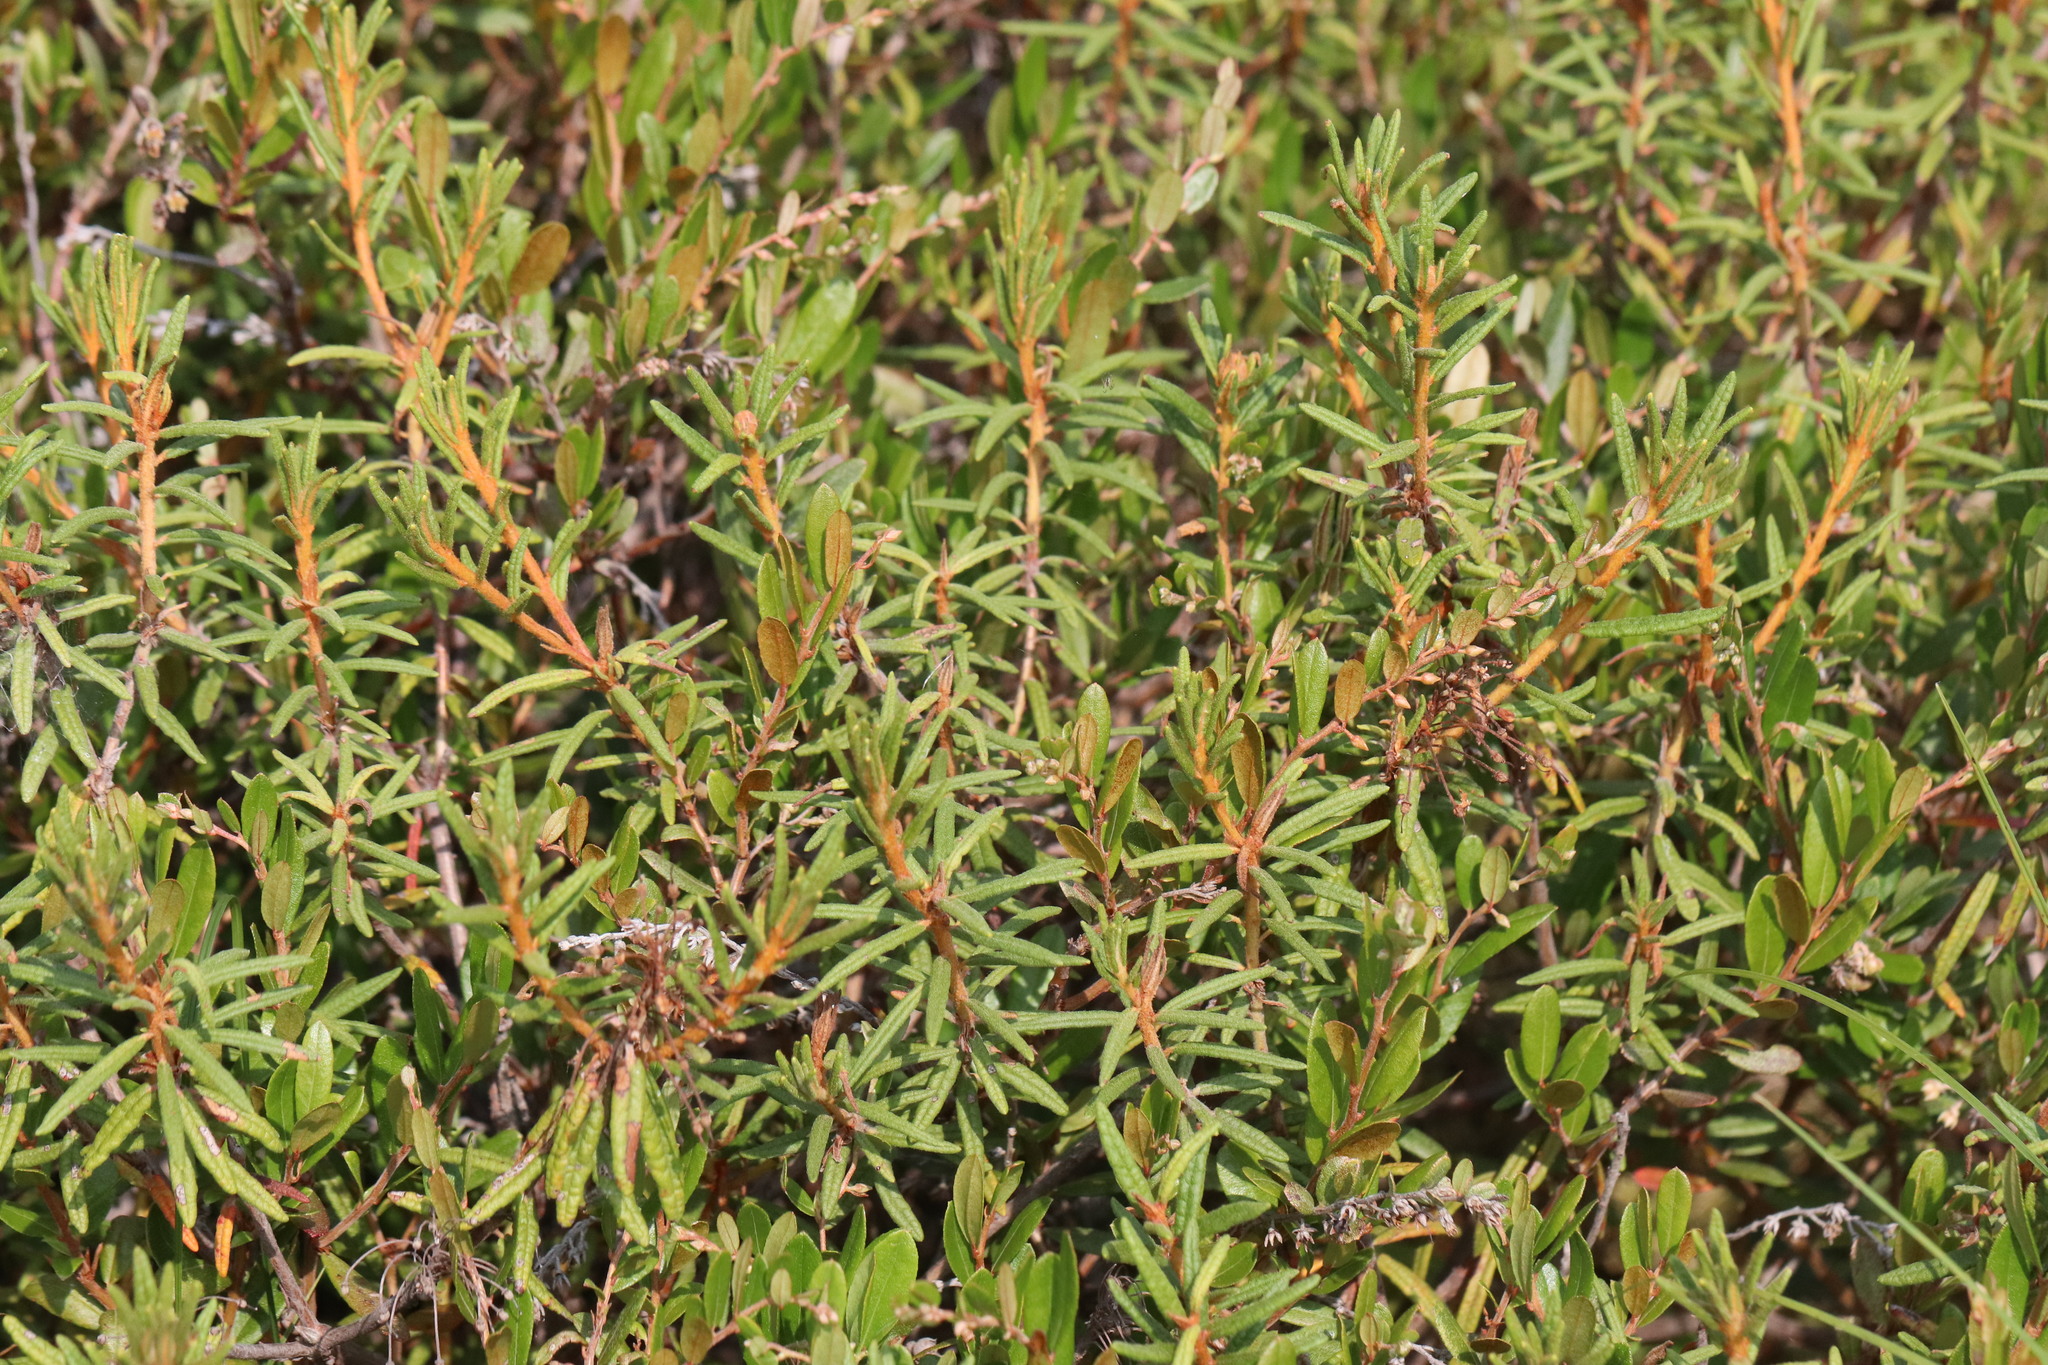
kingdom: Plantae
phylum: Tracheophyta
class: Magnoliopsida
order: Ericales
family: Ericaceae
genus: Rhododendron
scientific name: Rhododendron tomentosum
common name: Marsh labrador tea
